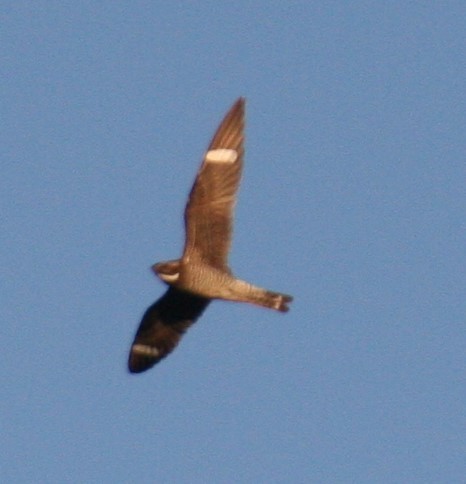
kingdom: Animalia
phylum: Chordata
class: Aves
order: Caprimulgiformes
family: Caprimulgidae
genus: Chordeiles
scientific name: Chordeiles minor
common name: Common nighthawk
